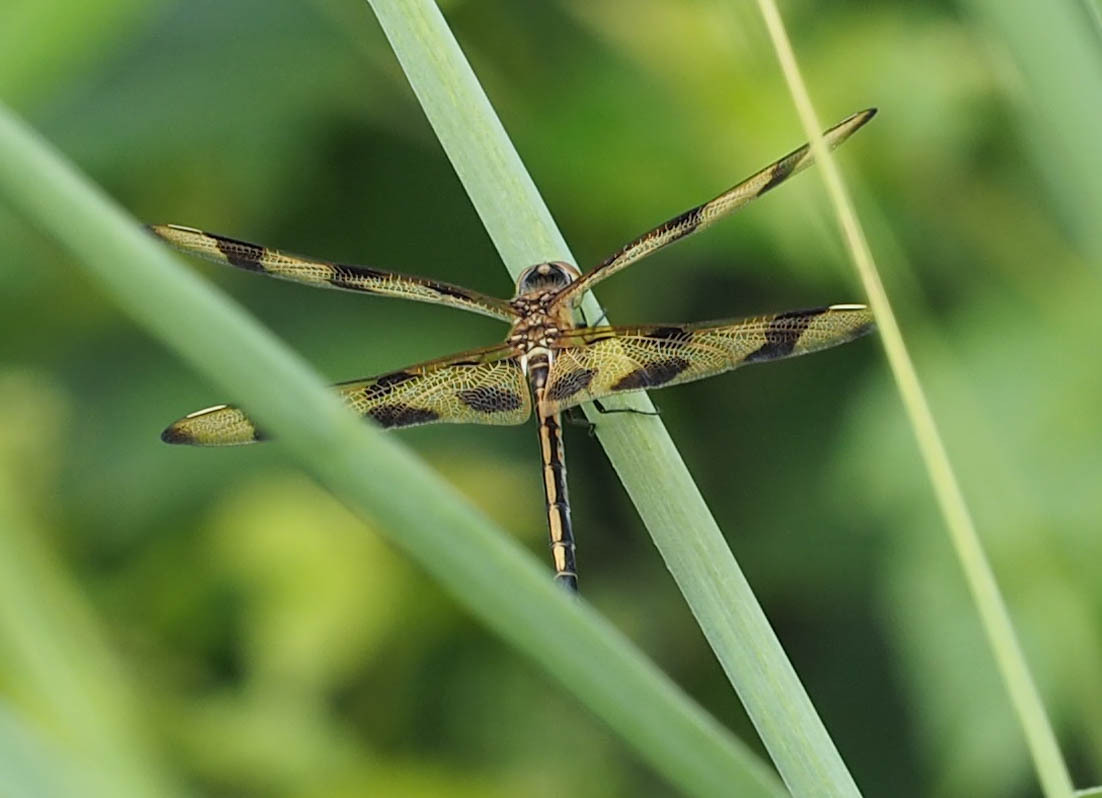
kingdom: Animalia
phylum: Arthropoda
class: Insecta
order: Odonata
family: Libellulidae
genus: Celithemis
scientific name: Celithemis eponina
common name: Halloween pennant
